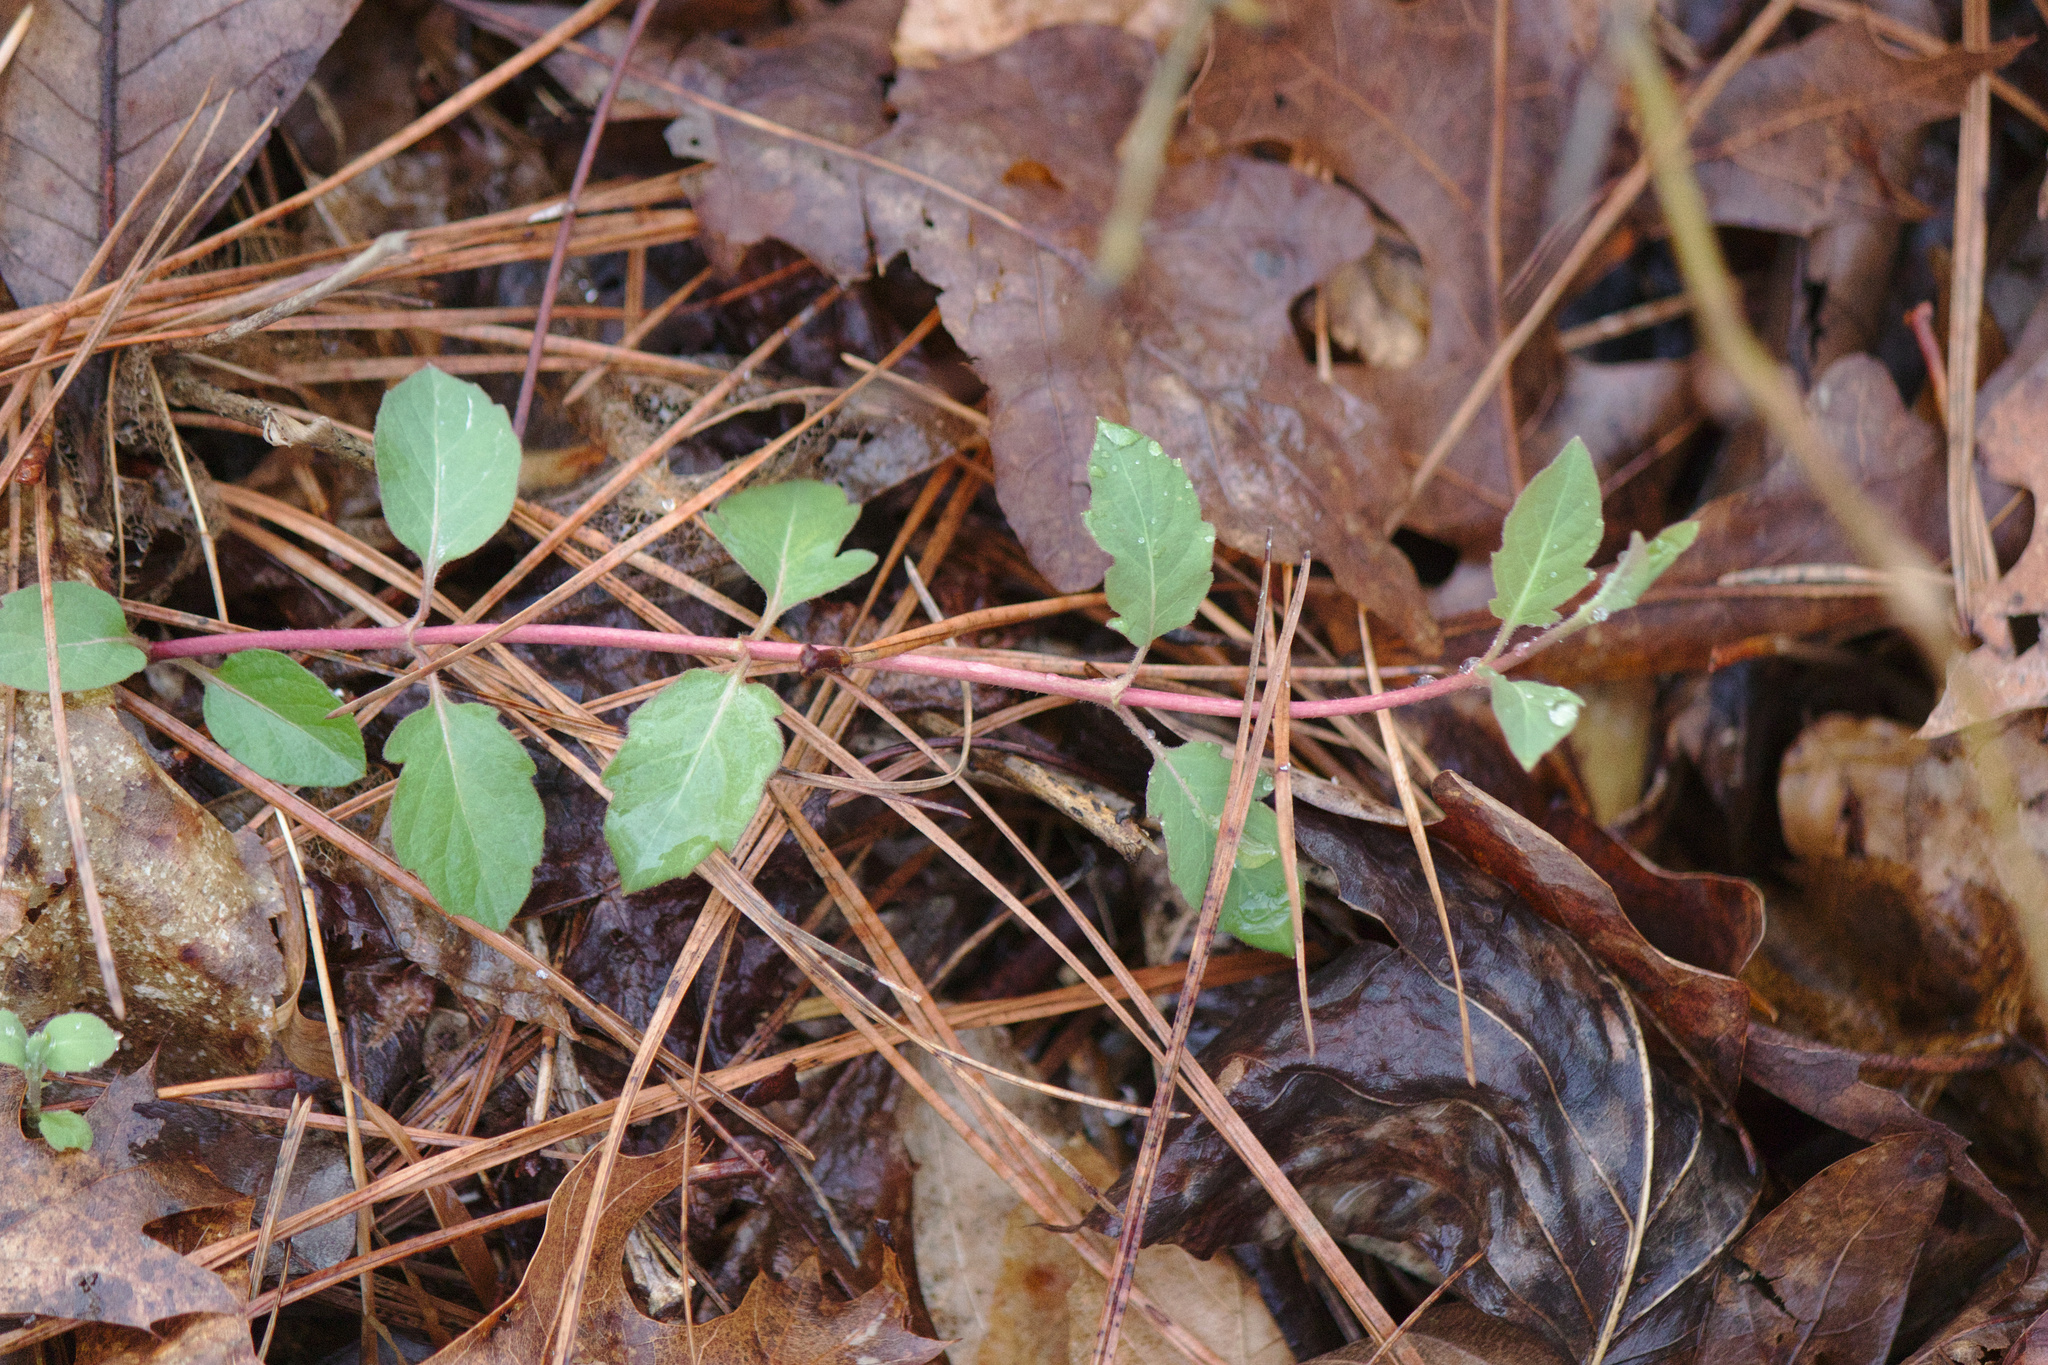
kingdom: Plantae
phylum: Tracheophyta
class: Magnoliopsida
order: Dipsacales
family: Caprifoliaceae
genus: Lonicera
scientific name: Lonicera japonica
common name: Japanese honeysuckle
